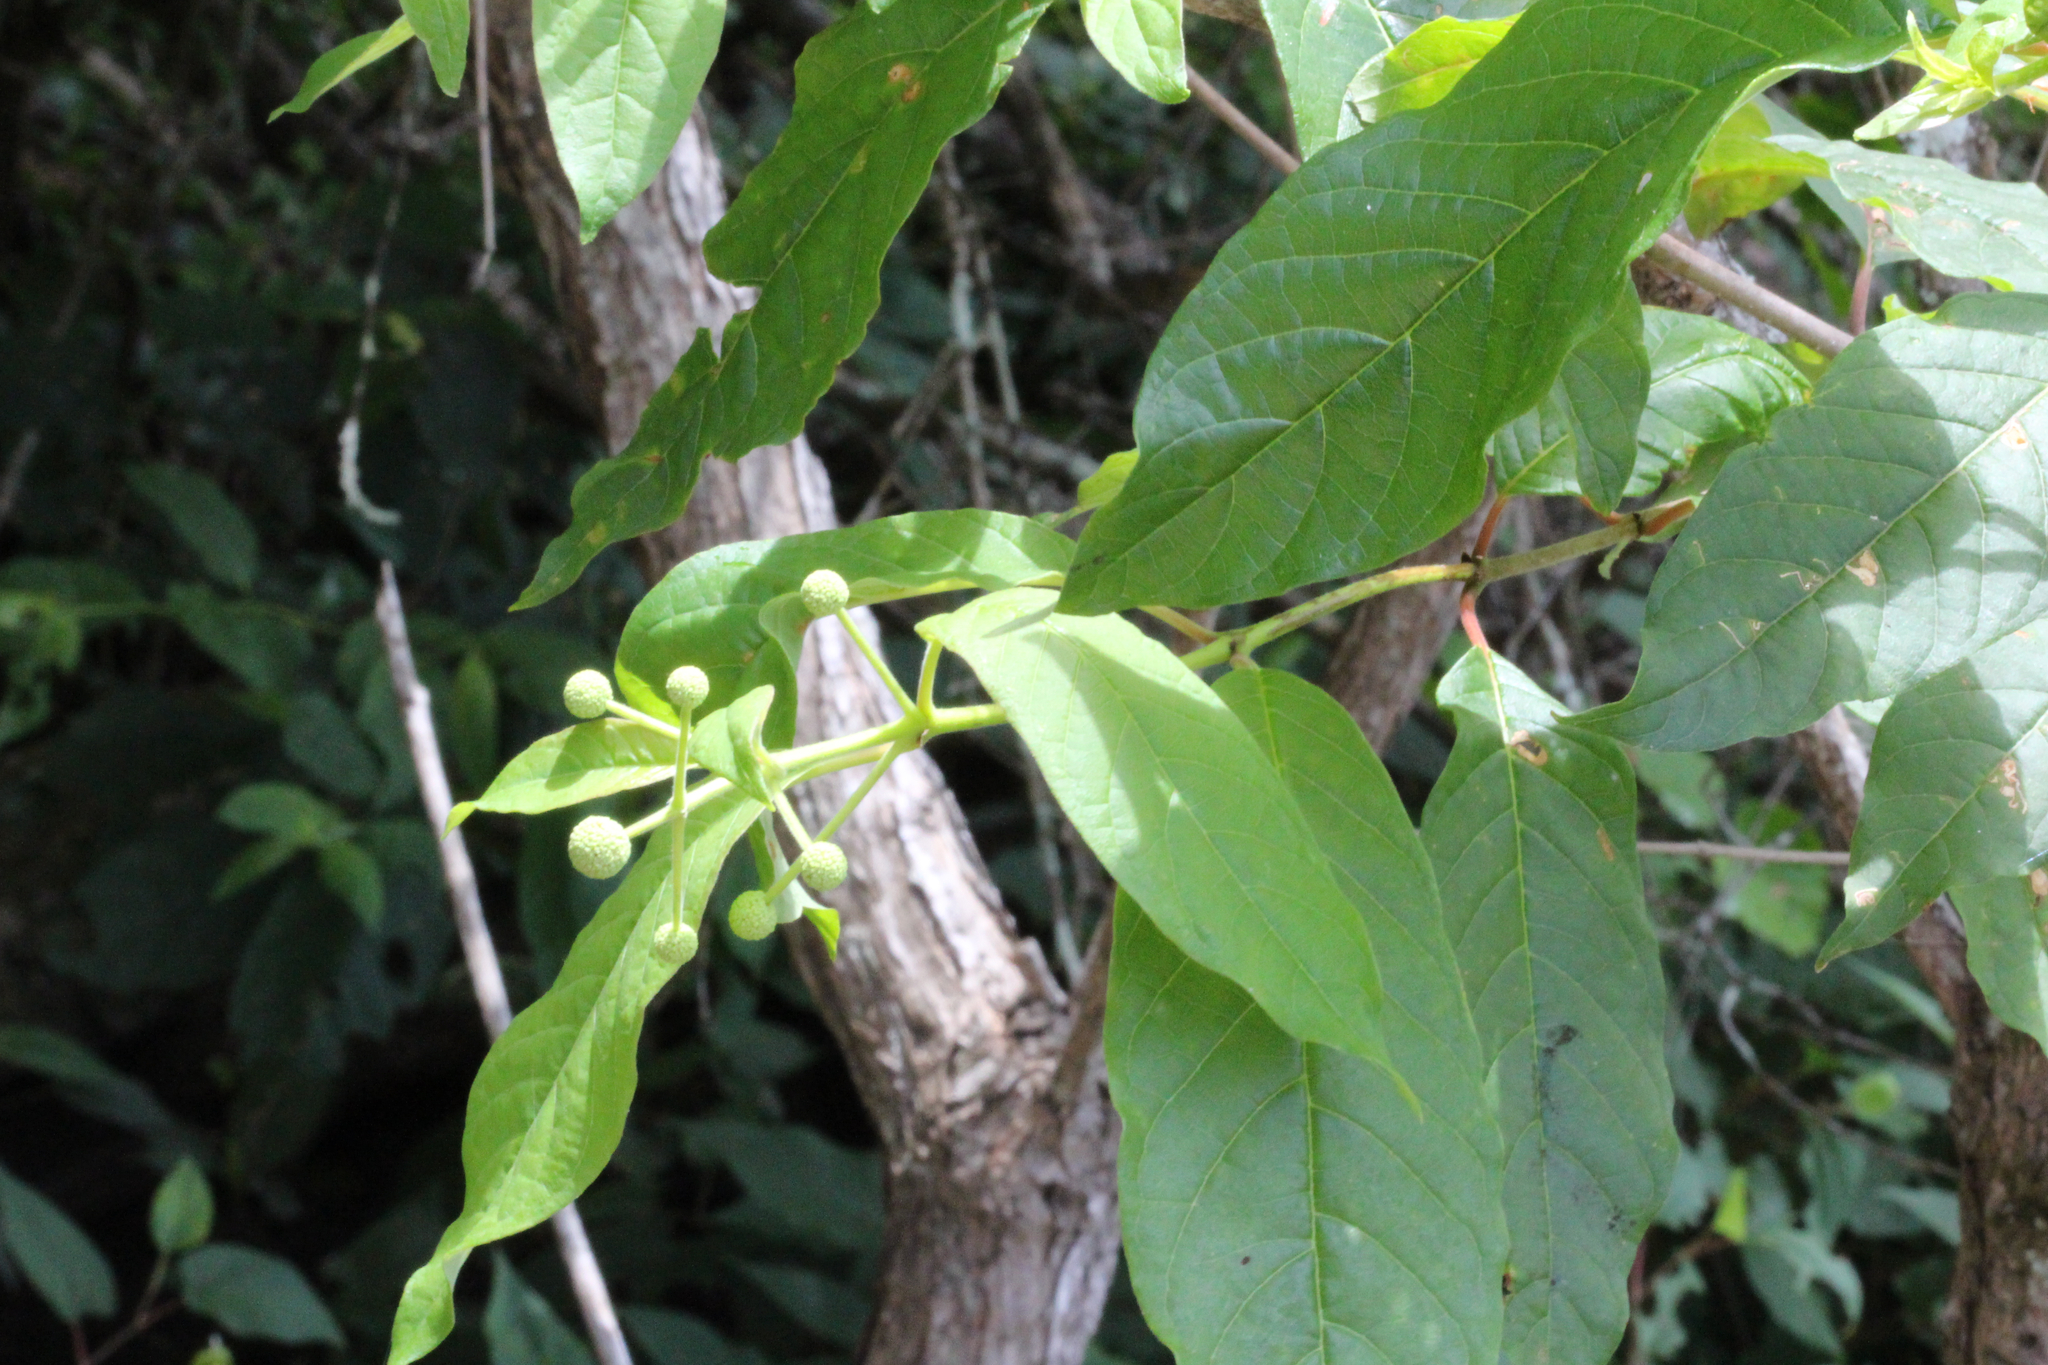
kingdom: Plantae
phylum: Tracheophyta
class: Magnoliopsida
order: Gentianales
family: Rubiaceae
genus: Cephalanthus
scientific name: Cephalanthus occidentalis
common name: Button-willow
